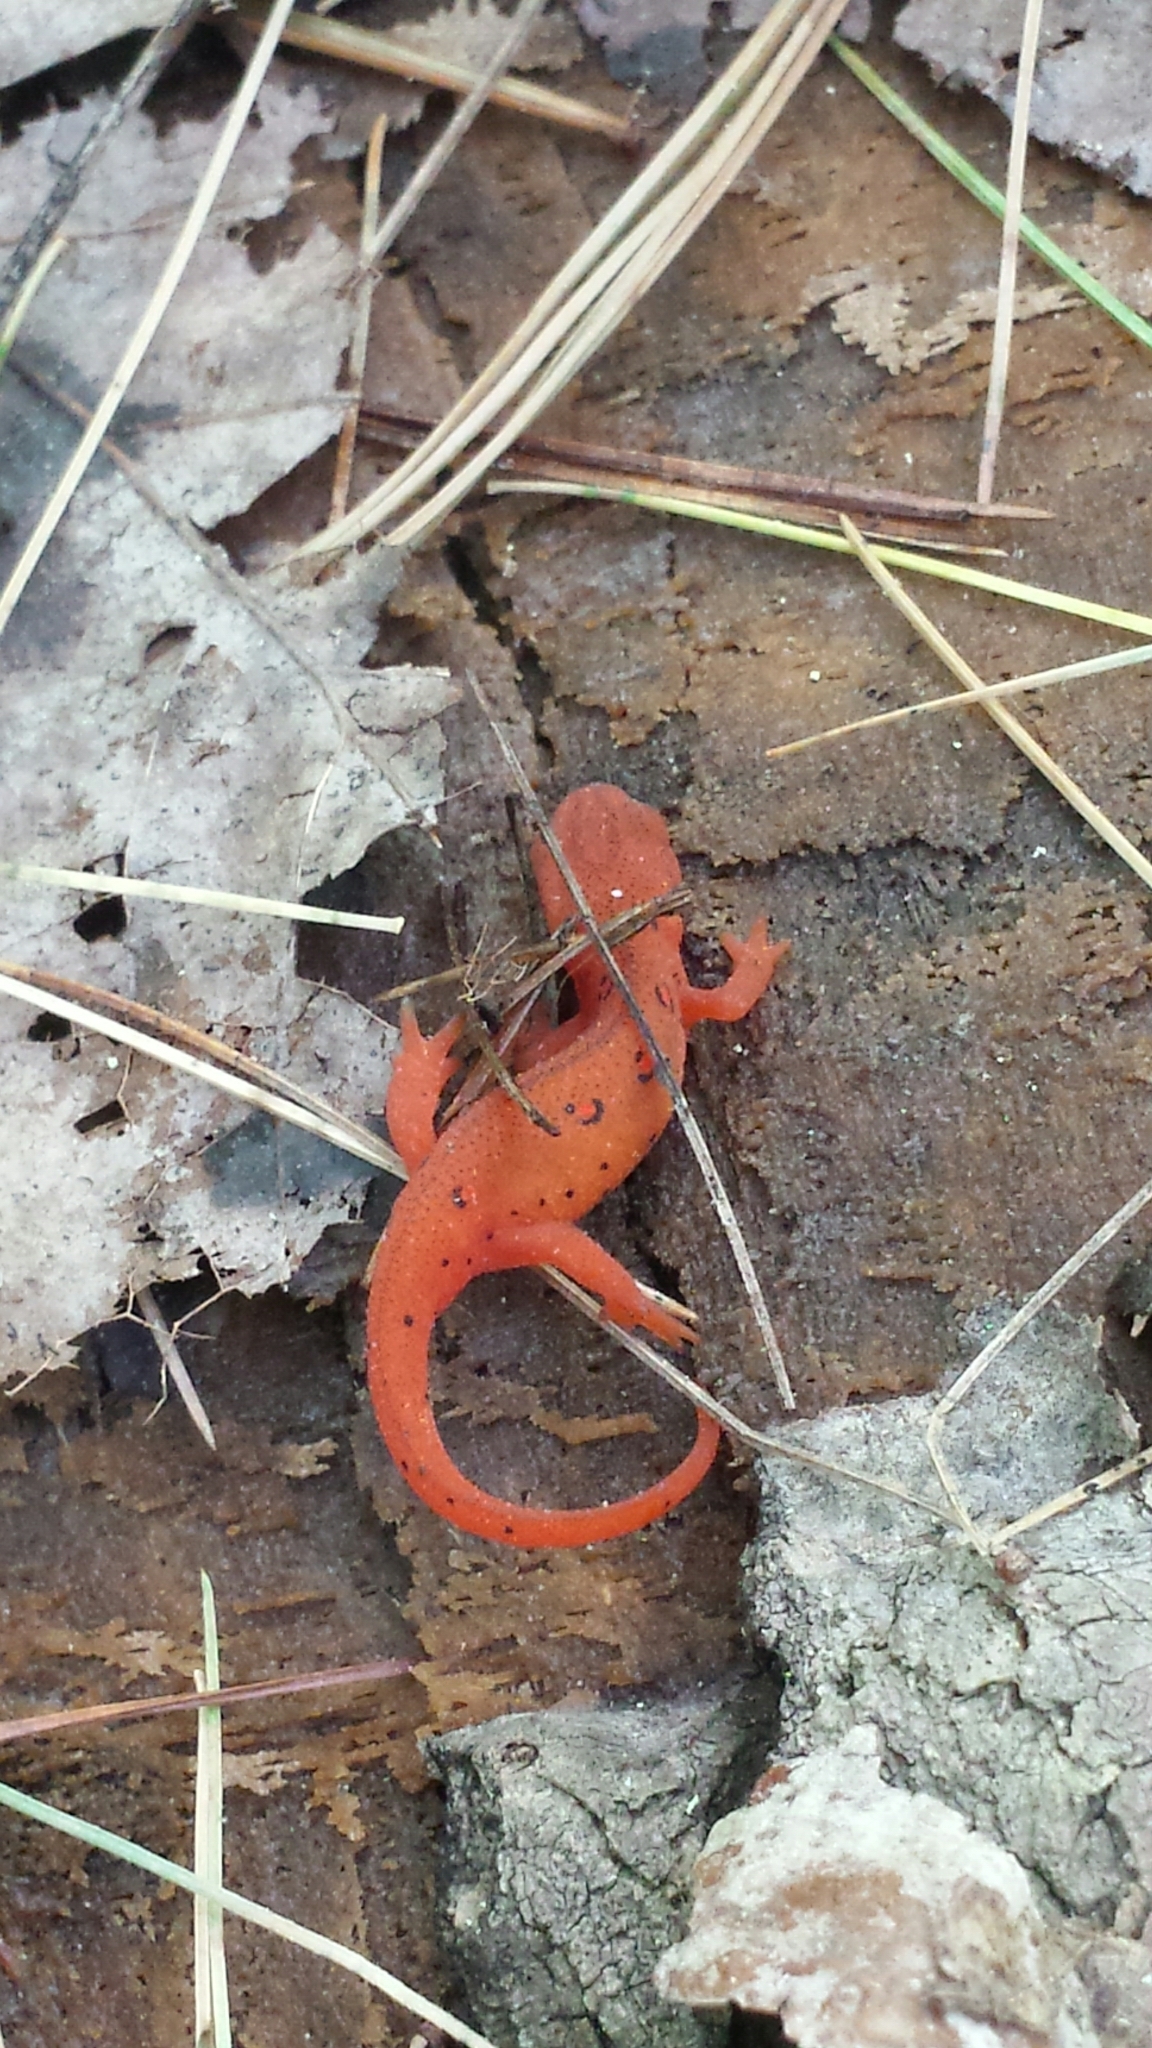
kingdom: Animalia
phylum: Chordata
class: Amphibia
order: Caudata
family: Salamandridae
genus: Notophthalmus
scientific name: Notophthalmus viridescens
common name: Eastern newt
